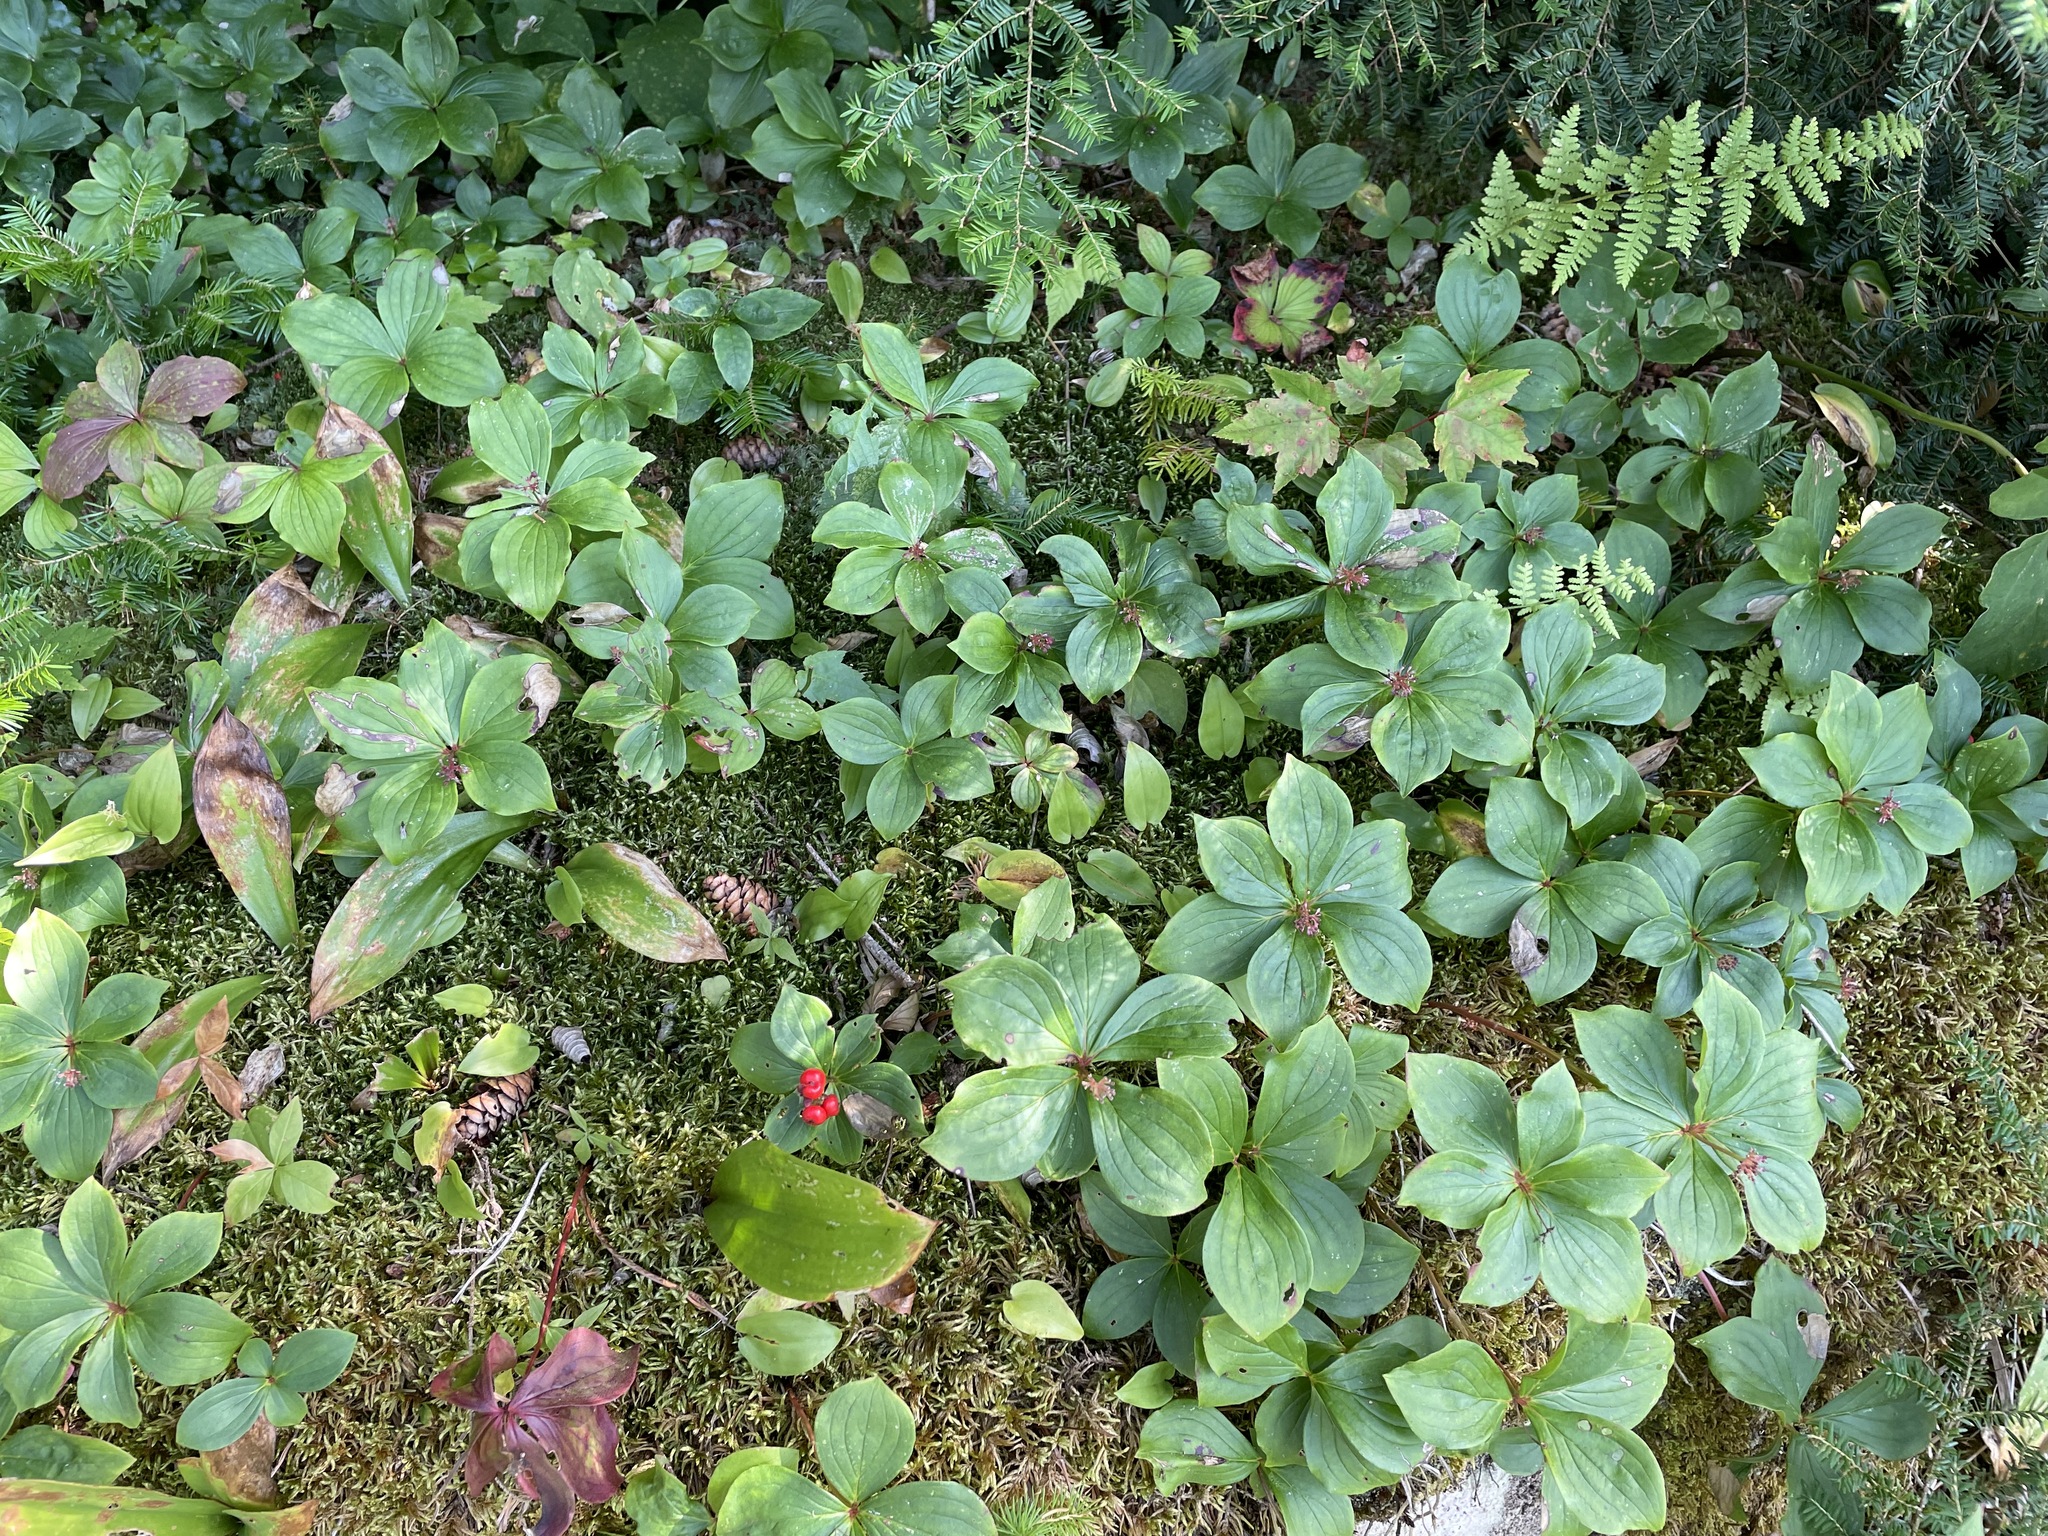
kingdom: Plantae
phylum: Tracheophyta
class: Magnoliopsida
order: Cornales
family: Cornaceae
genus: Cornus
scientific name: Cornus canadensis
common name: Creeping dogwood
